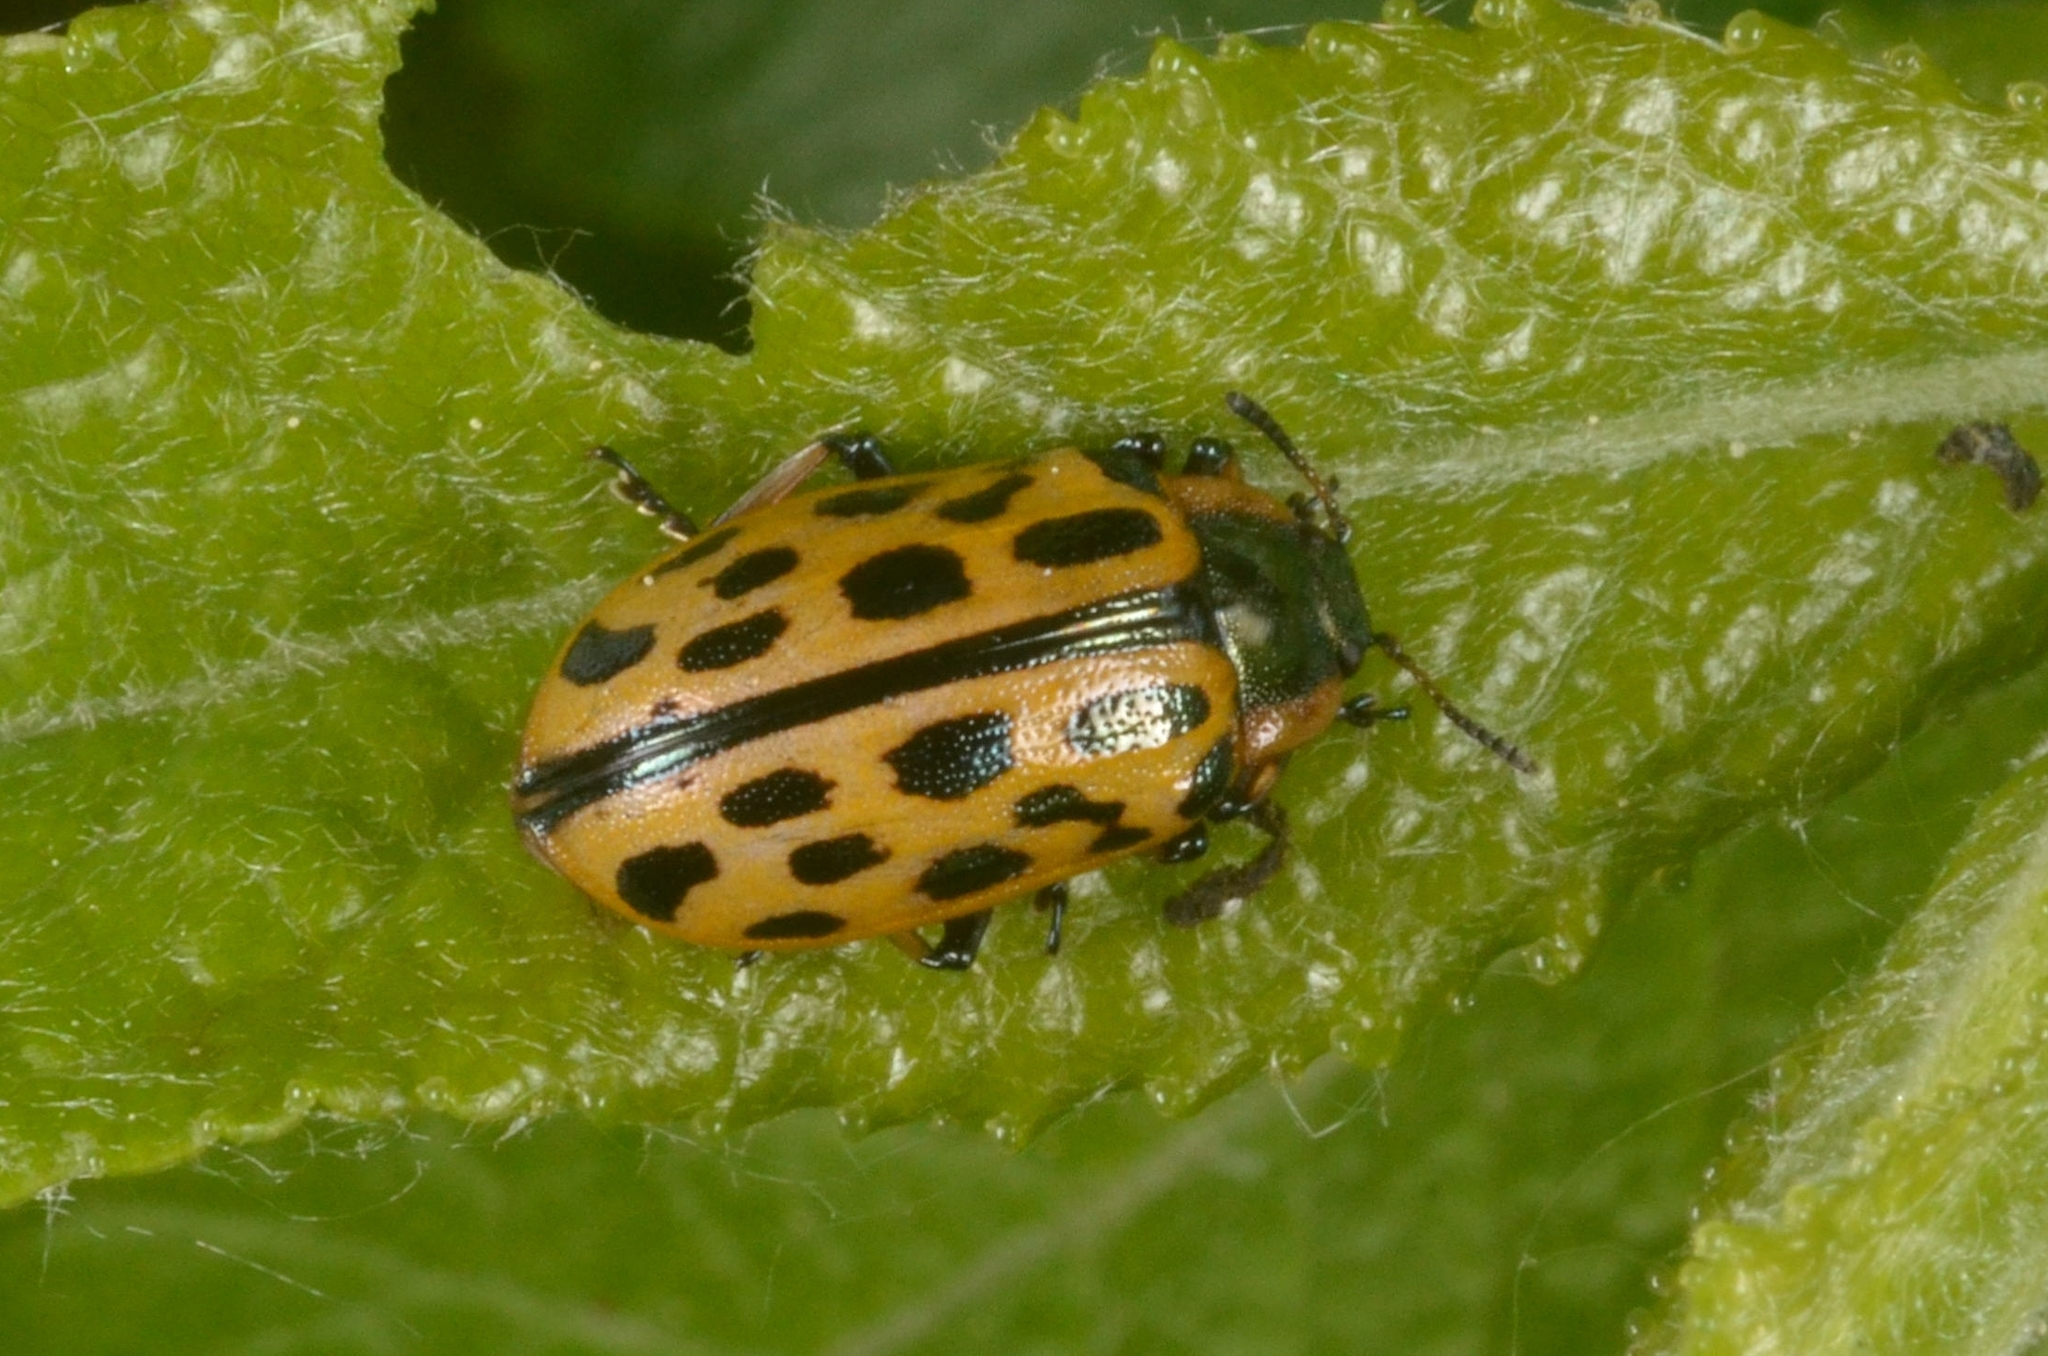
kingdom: Animalia
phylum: Arthropoda
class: Insecta
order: Coleoptera
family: Chrysomelidae
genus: Chrysomela
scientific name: Chrysomela vigintipunctata
